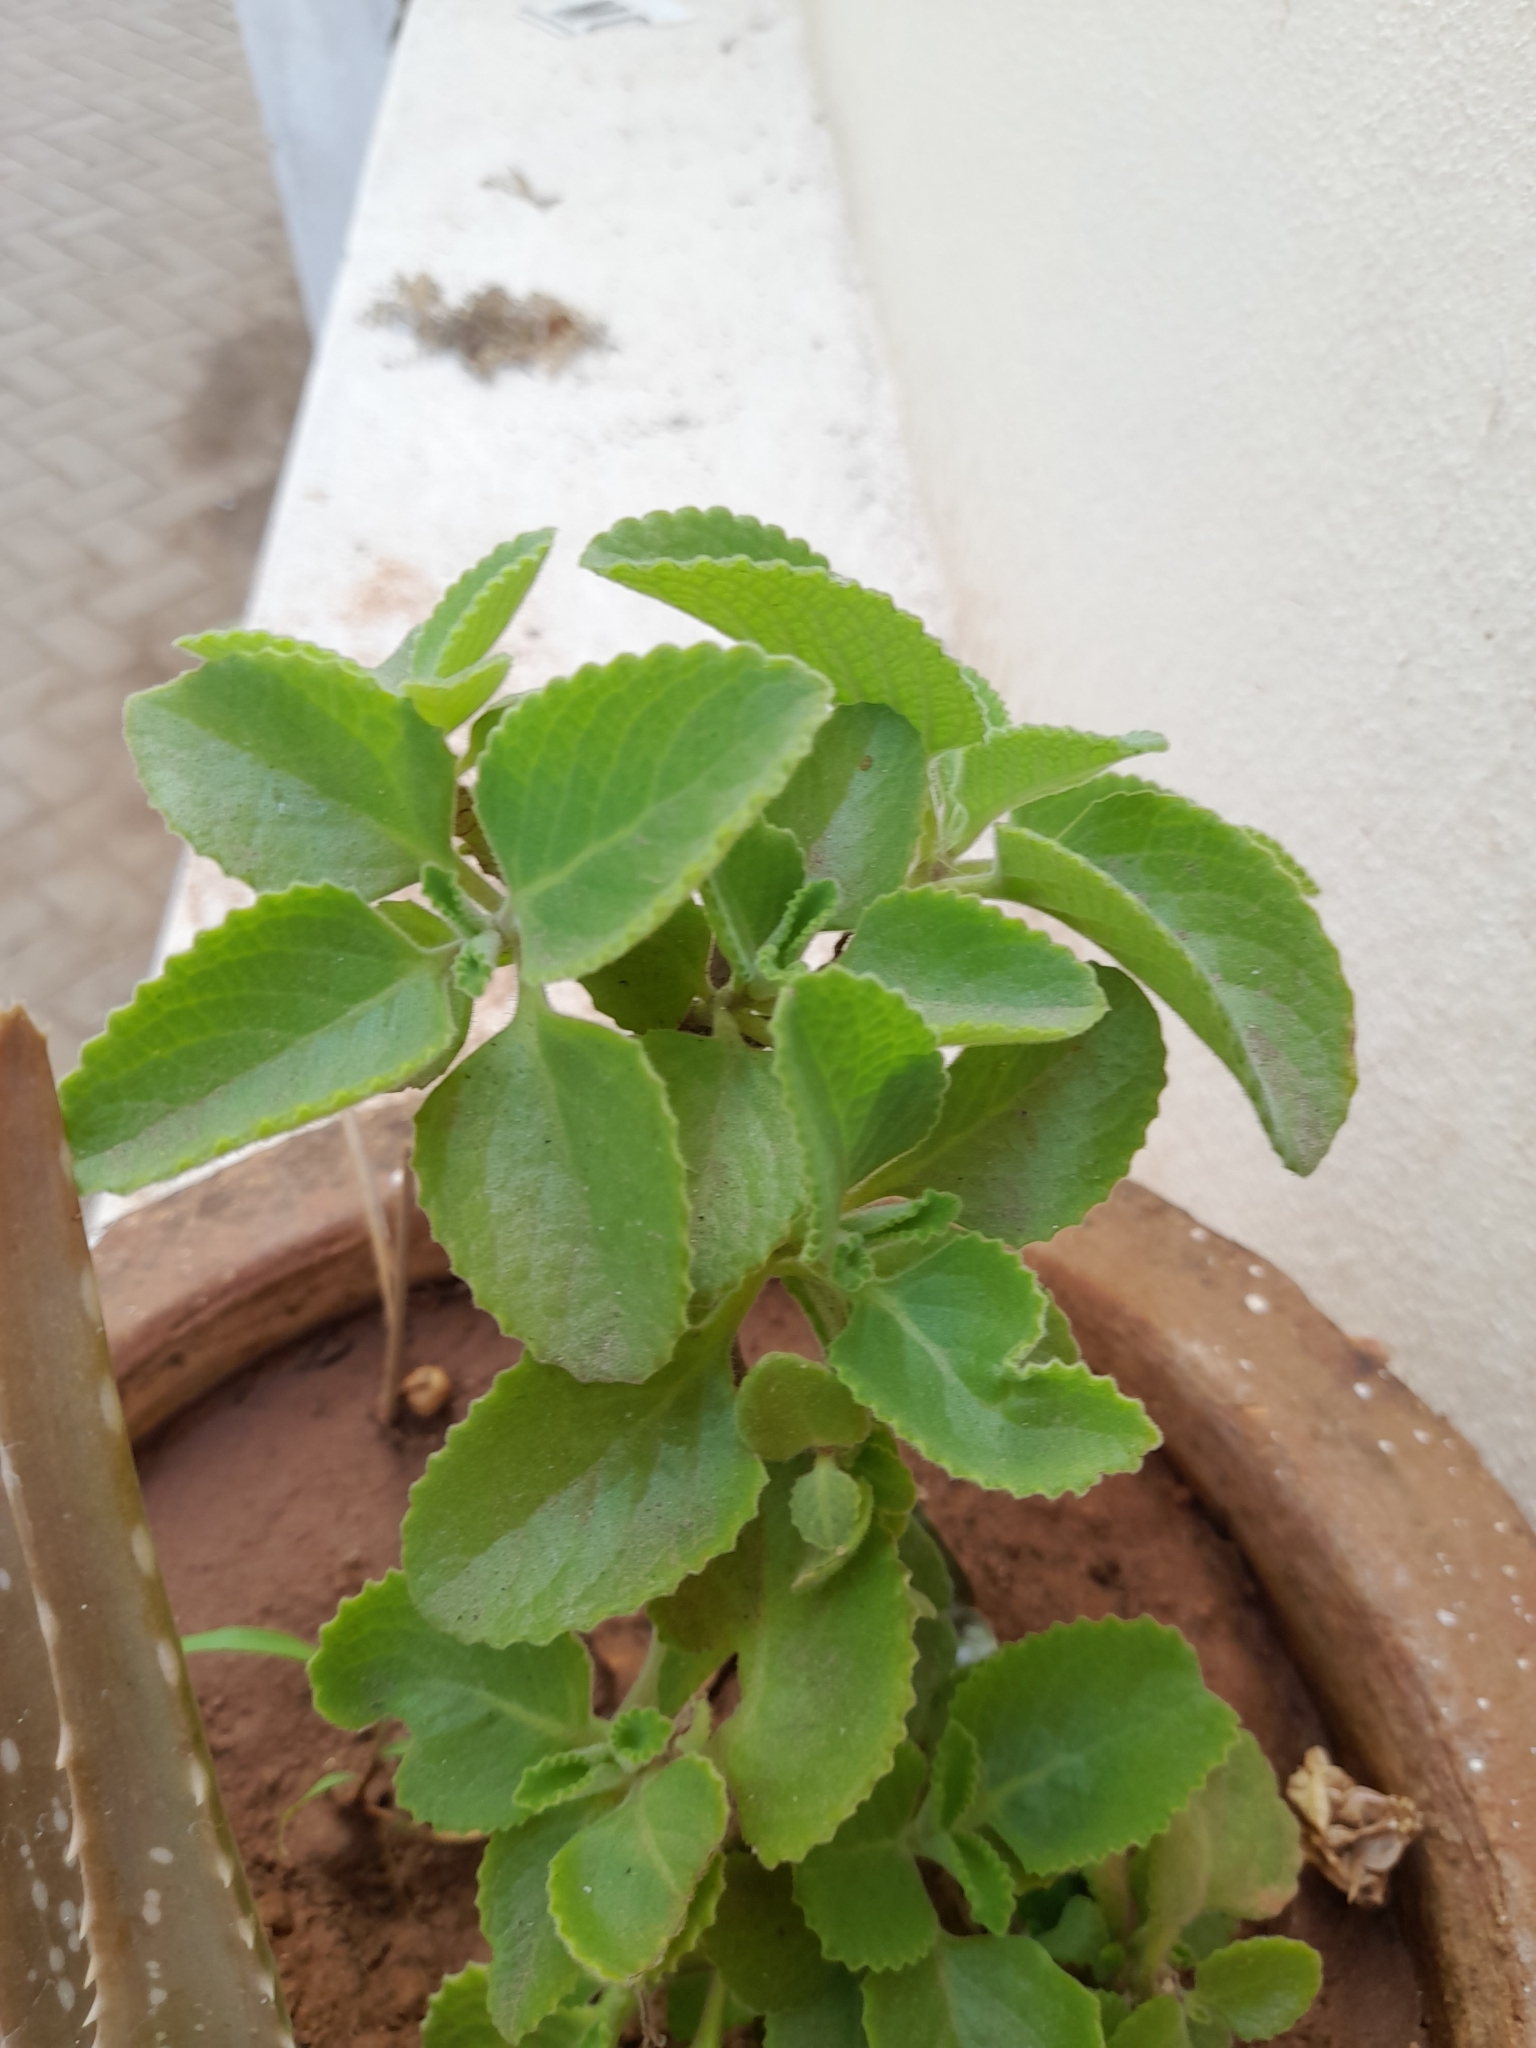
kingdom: Plantae
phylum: Tracheophyta
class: Magnoliopsida
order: Lamiales
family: Lamiaceae
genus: Coleus
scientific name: Coleus amboinicus
